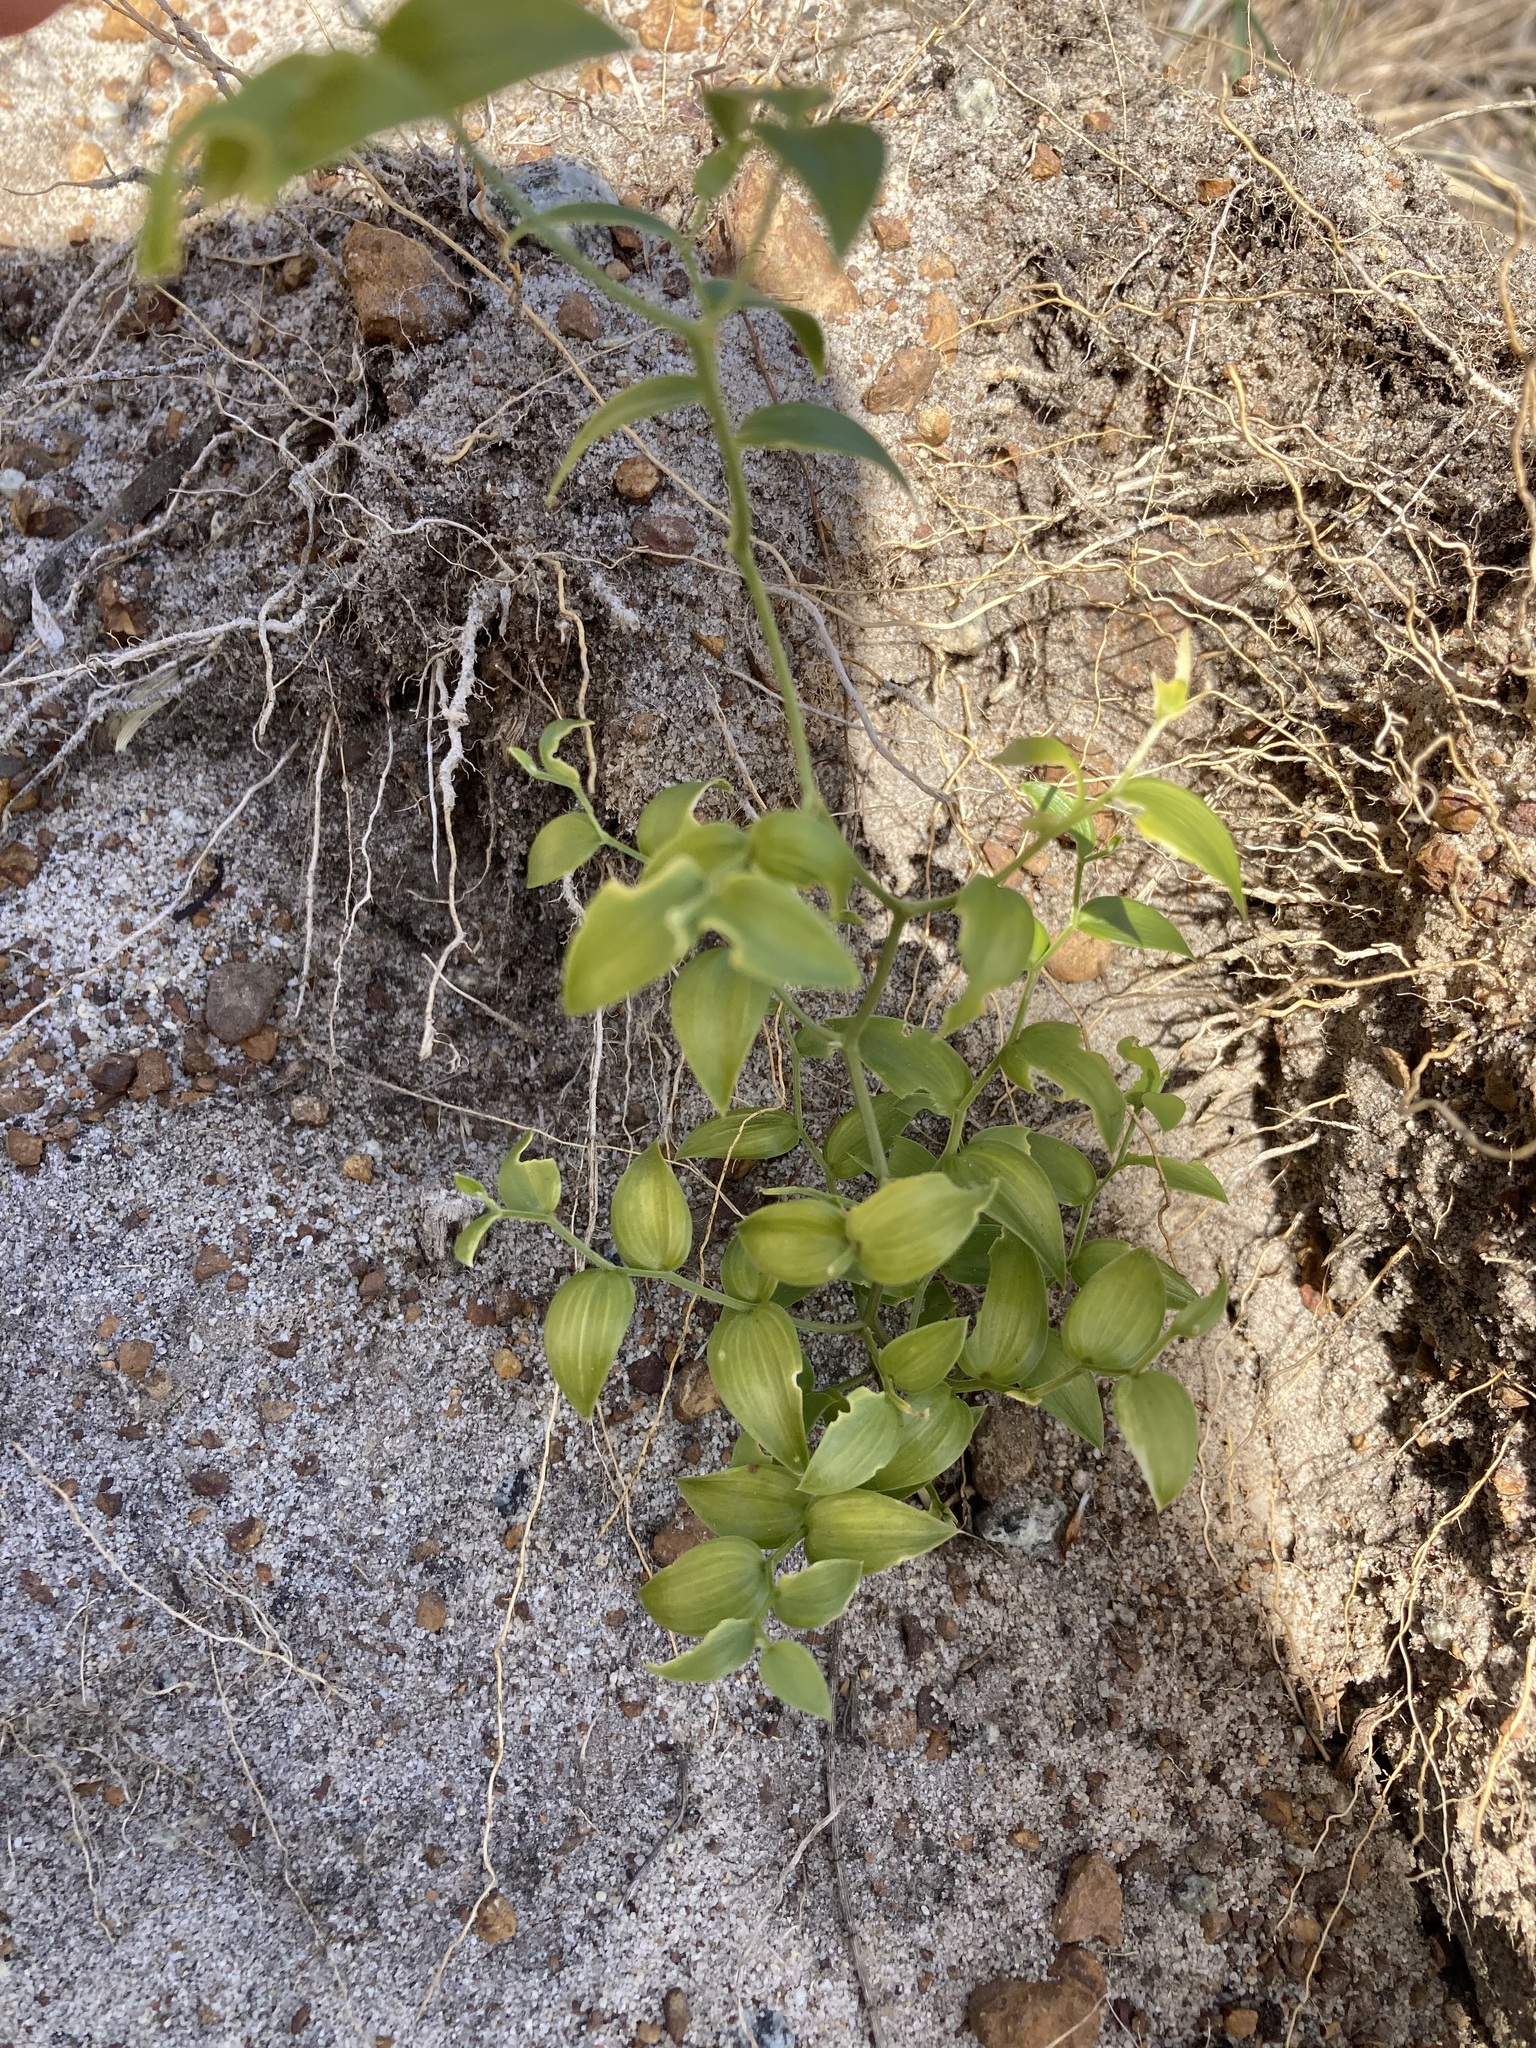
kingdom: Plantae
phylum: Tracheophyta
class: Liliopsida
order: Asparagales
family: Asparagaceae
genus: Asparagus
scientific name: Asparagus asparagoides
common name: African asparagus fern
